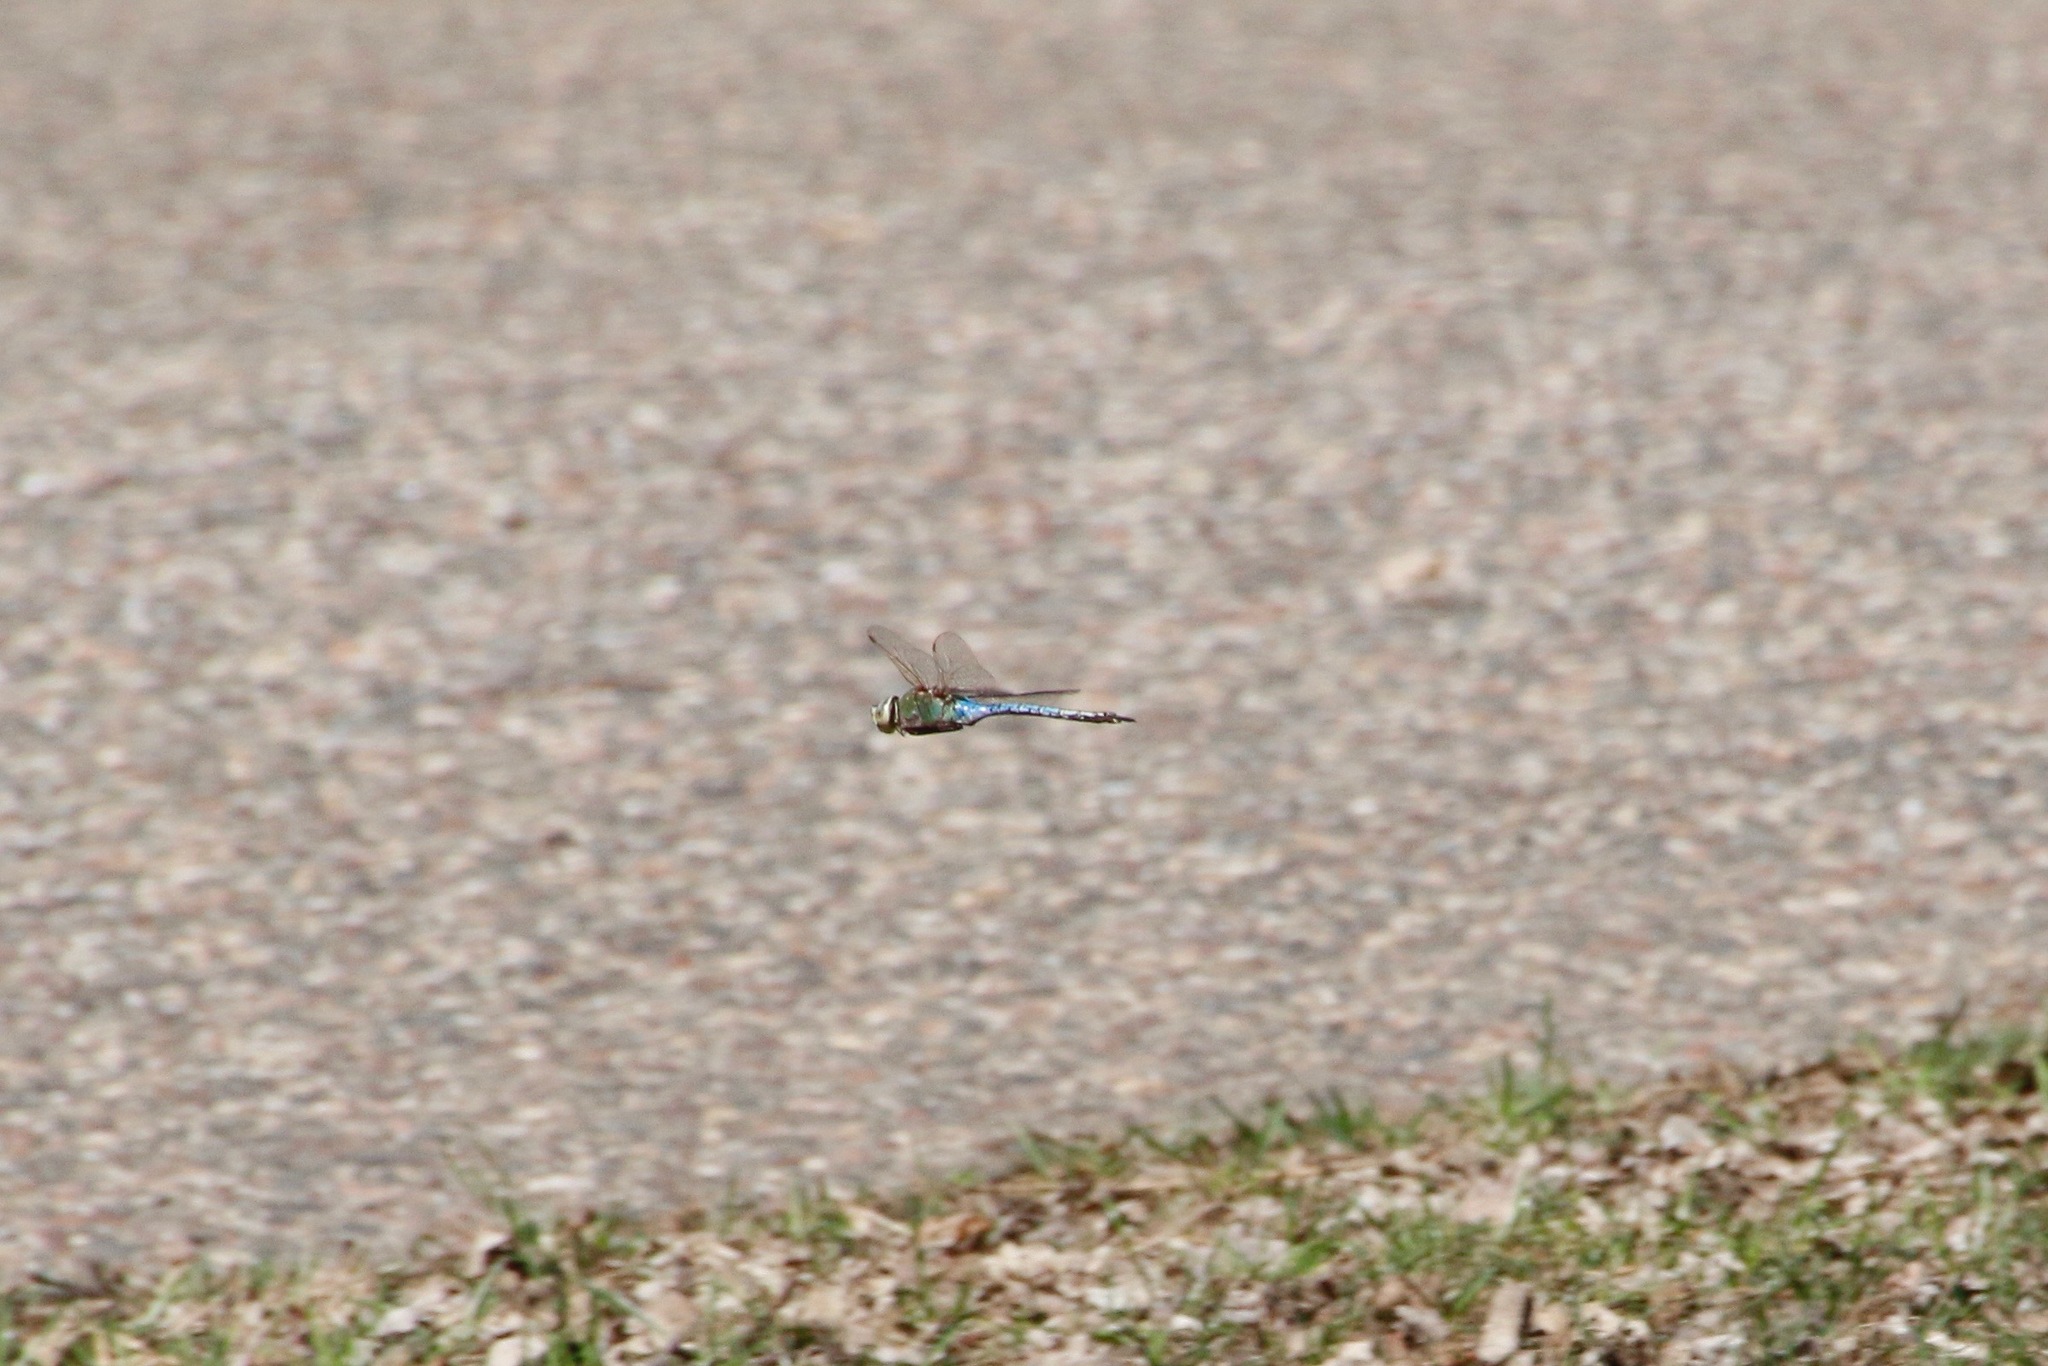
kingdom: Animalia
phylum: Arthropoda
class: Insecta
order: Odonata
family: Aeshnidae
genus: Anax
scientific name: Anax junius
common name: Common green darner
